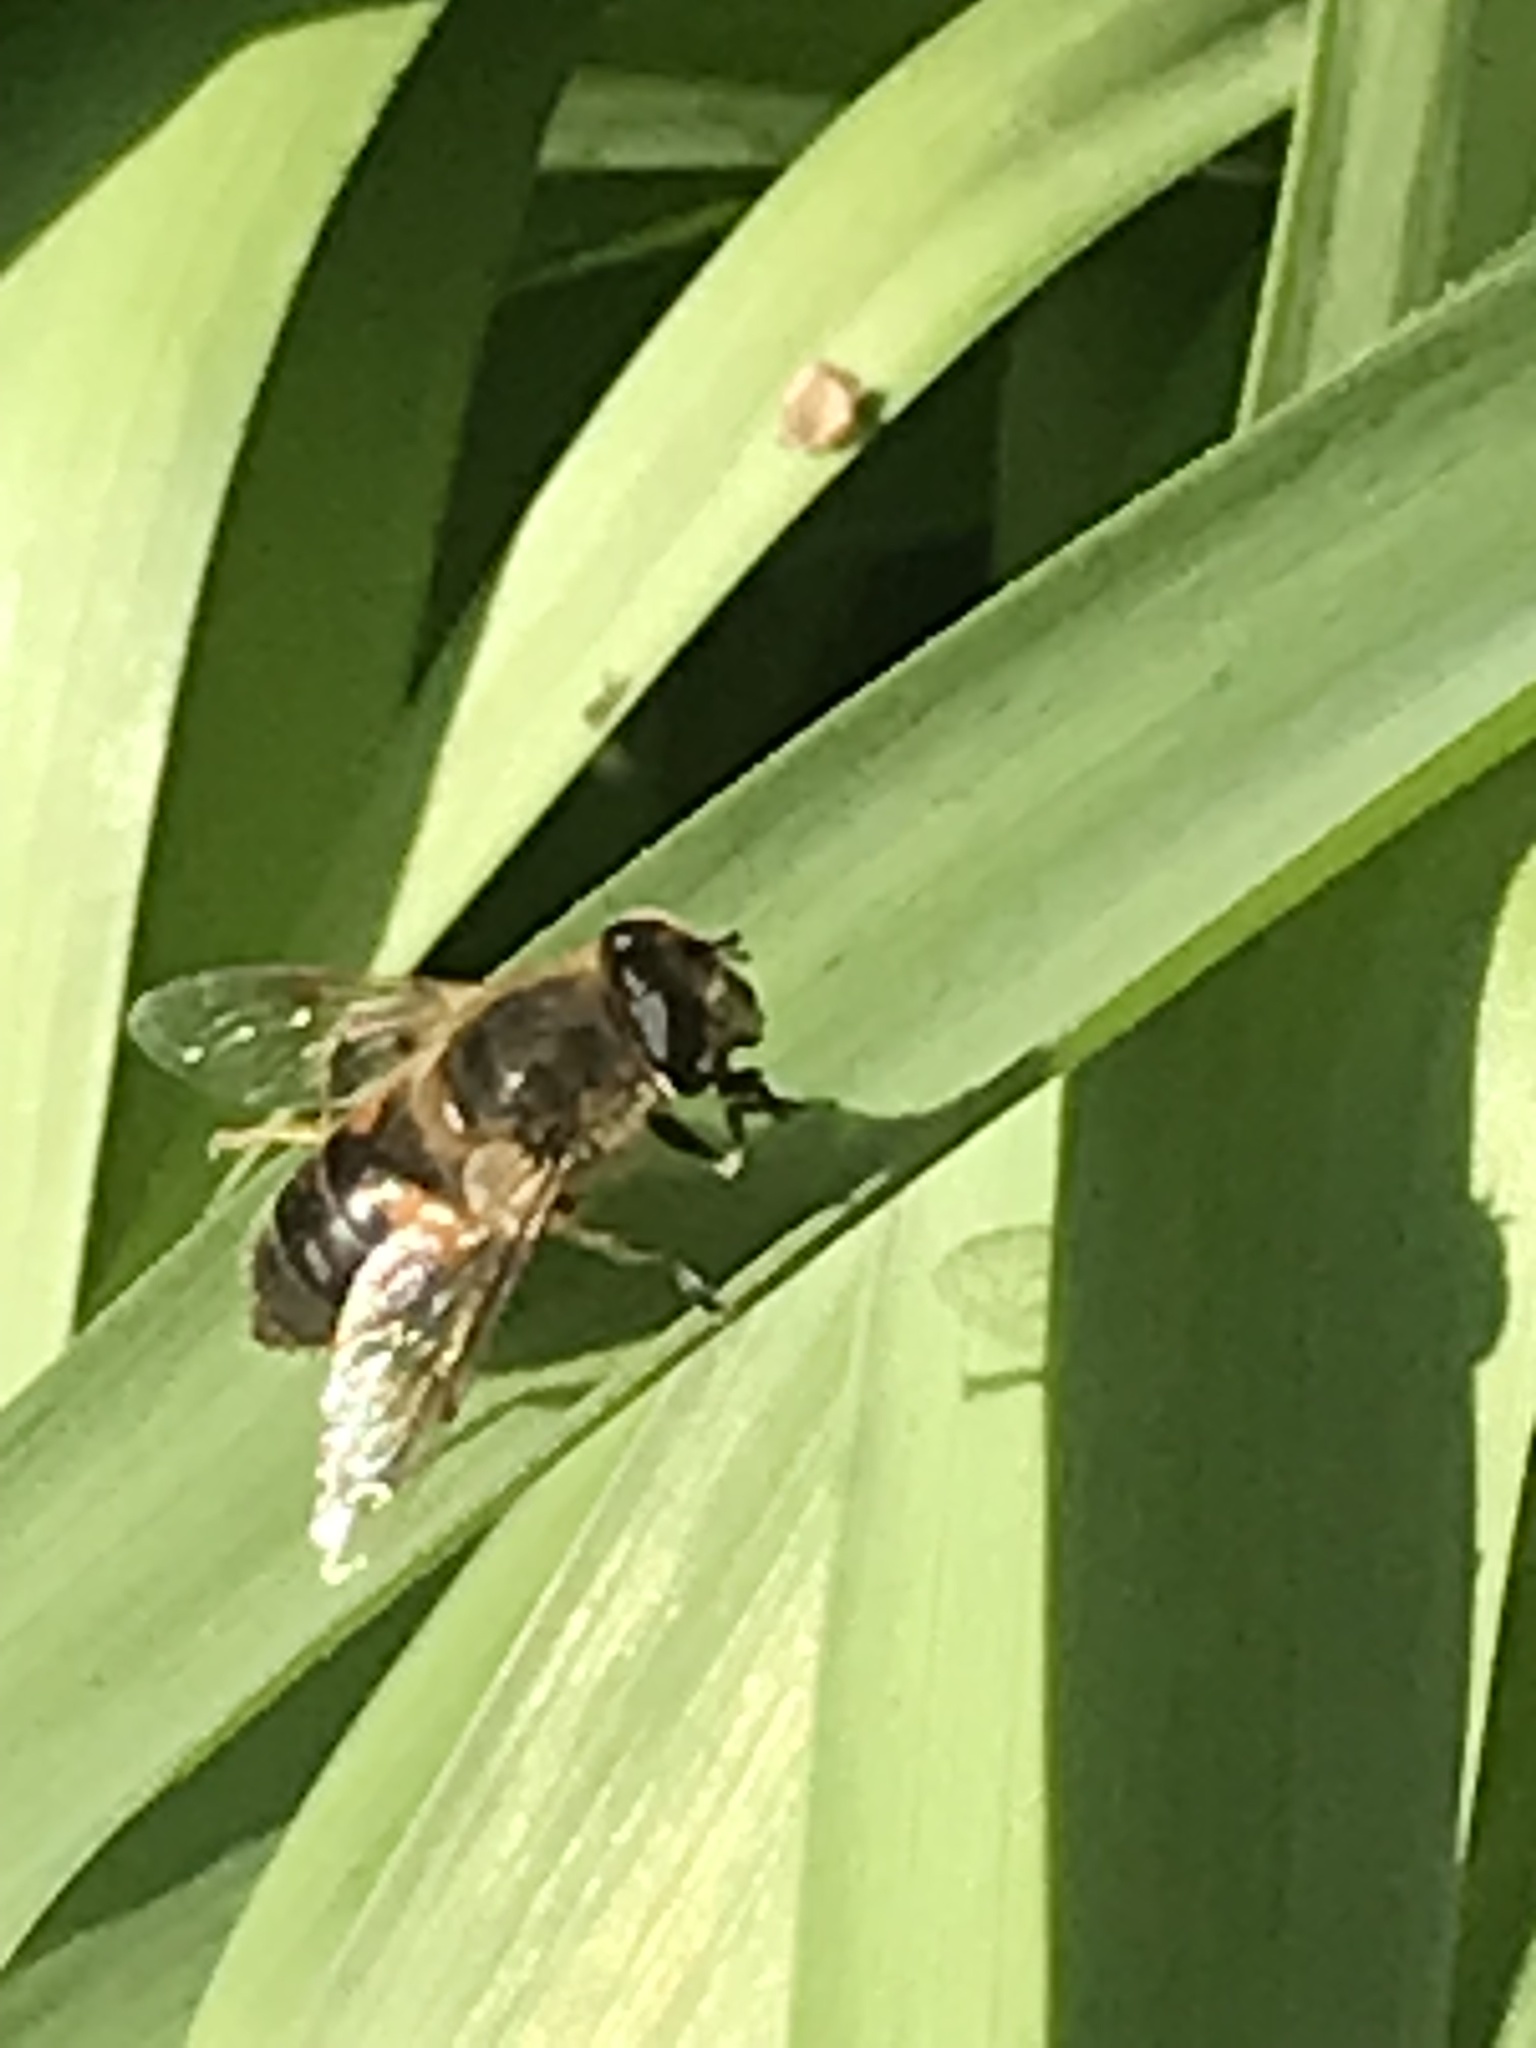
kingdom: Animalia
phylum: Arthropoda
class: Insecta
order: Diptera
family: Syrphidae
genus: Eristalis
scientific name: Eristalis tenax
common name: Drone fly
